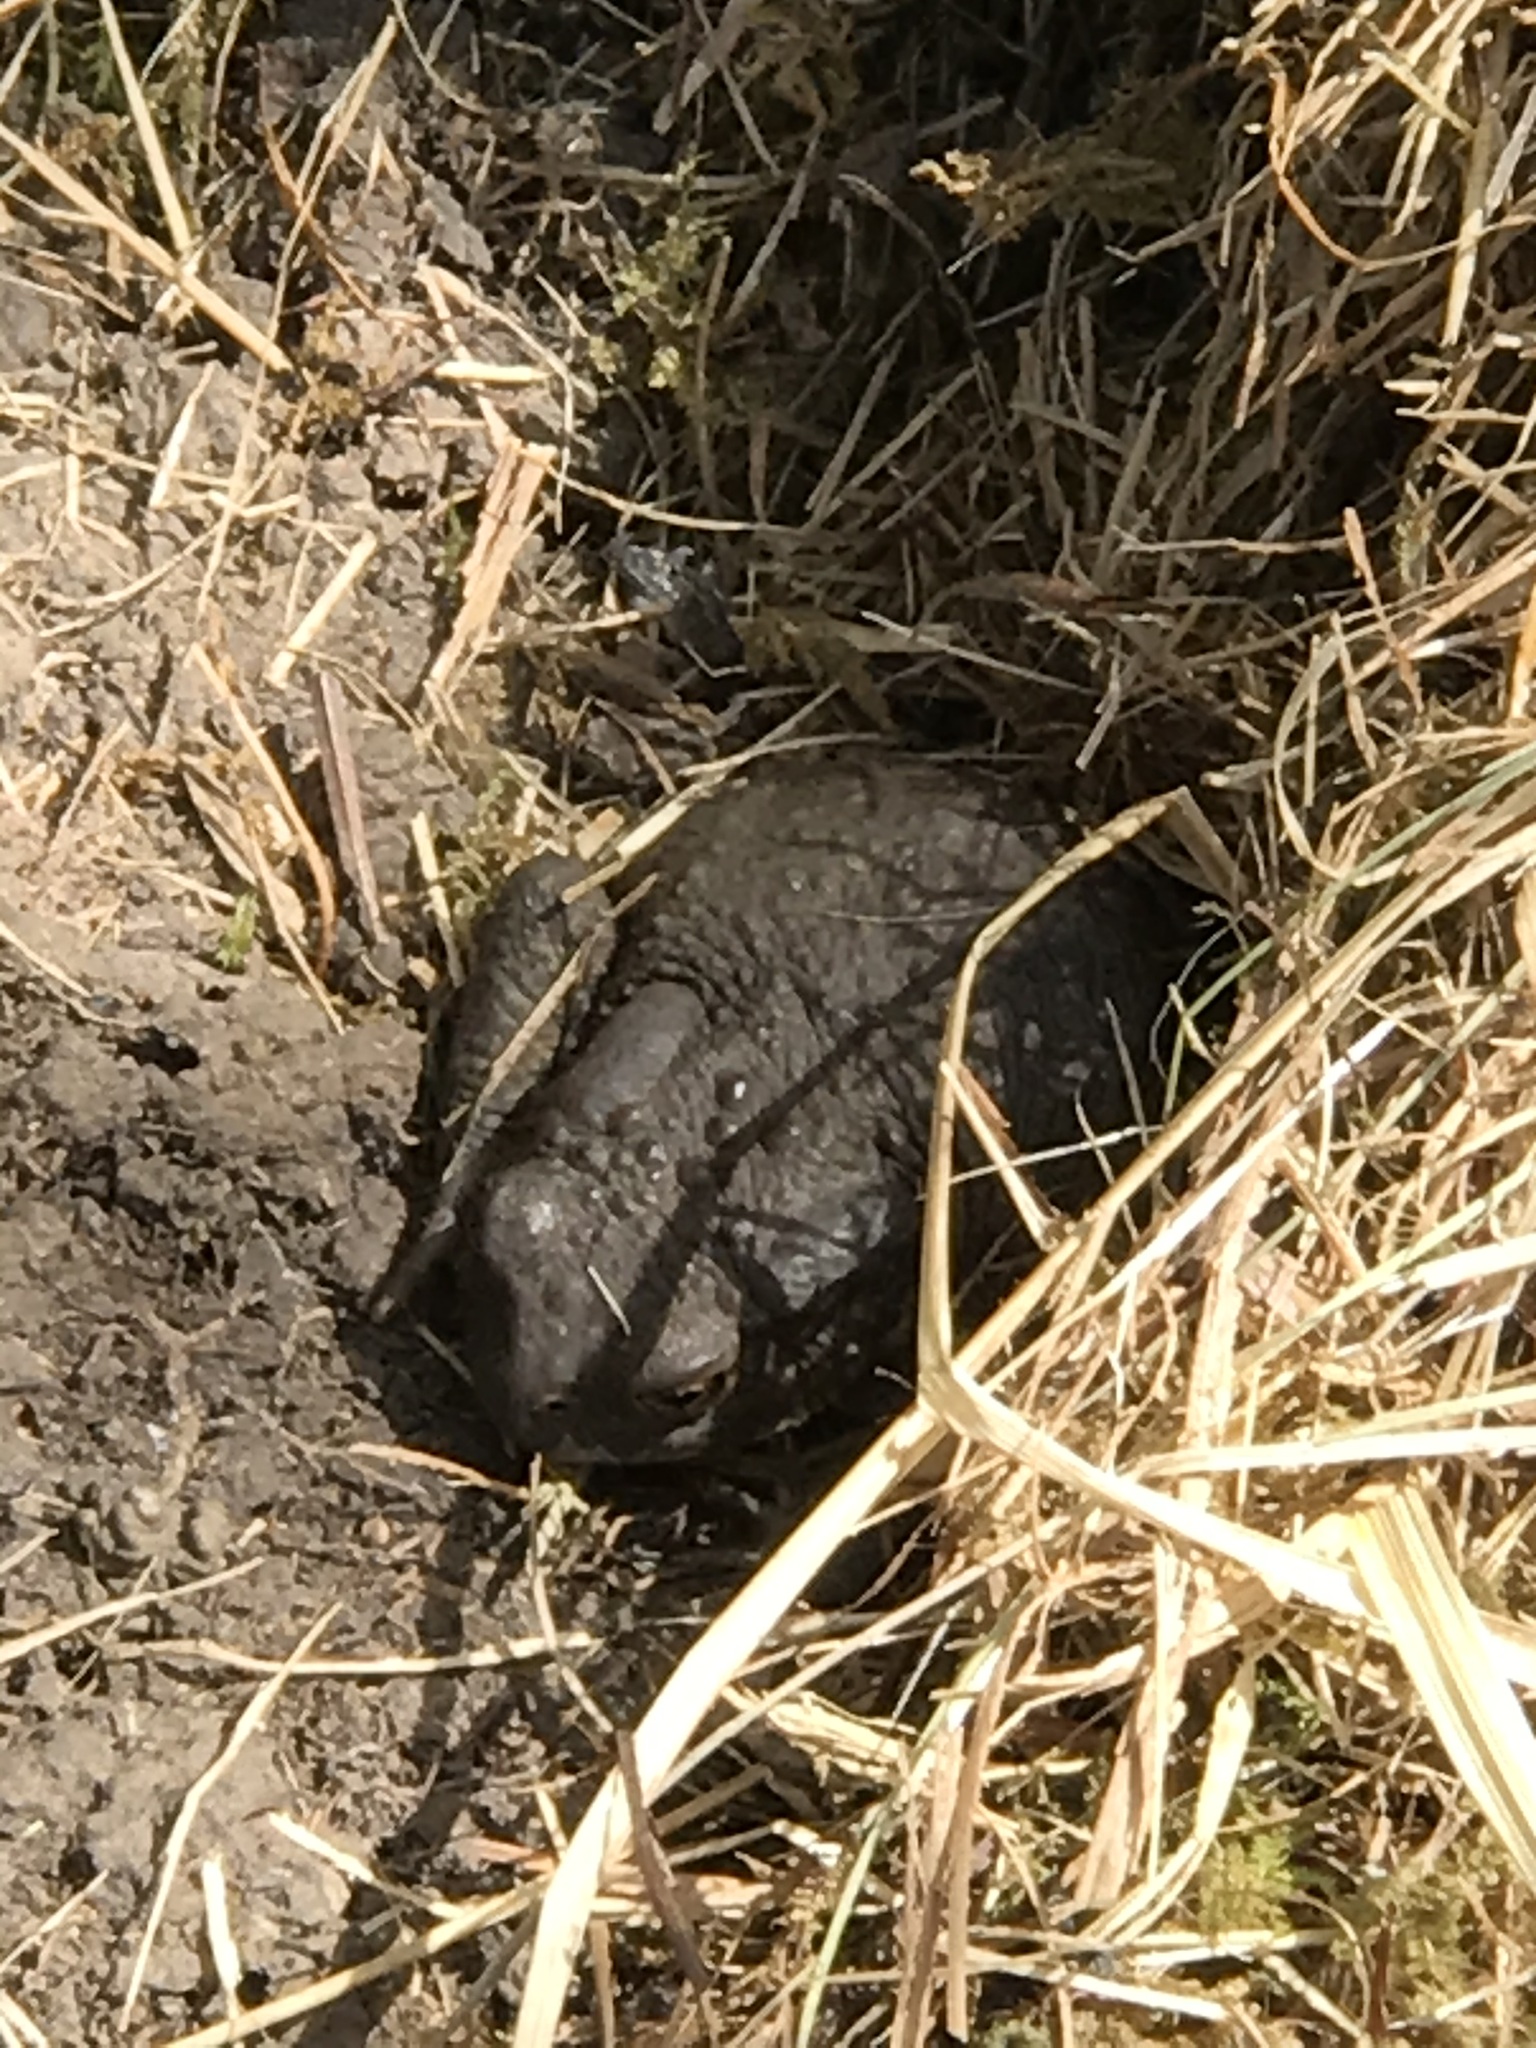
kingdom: Animalia
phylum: Chordata
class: Amphibia
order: Anura
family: Bufonidae
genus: Bufo
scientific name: Bufo bufo
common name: Common toad
